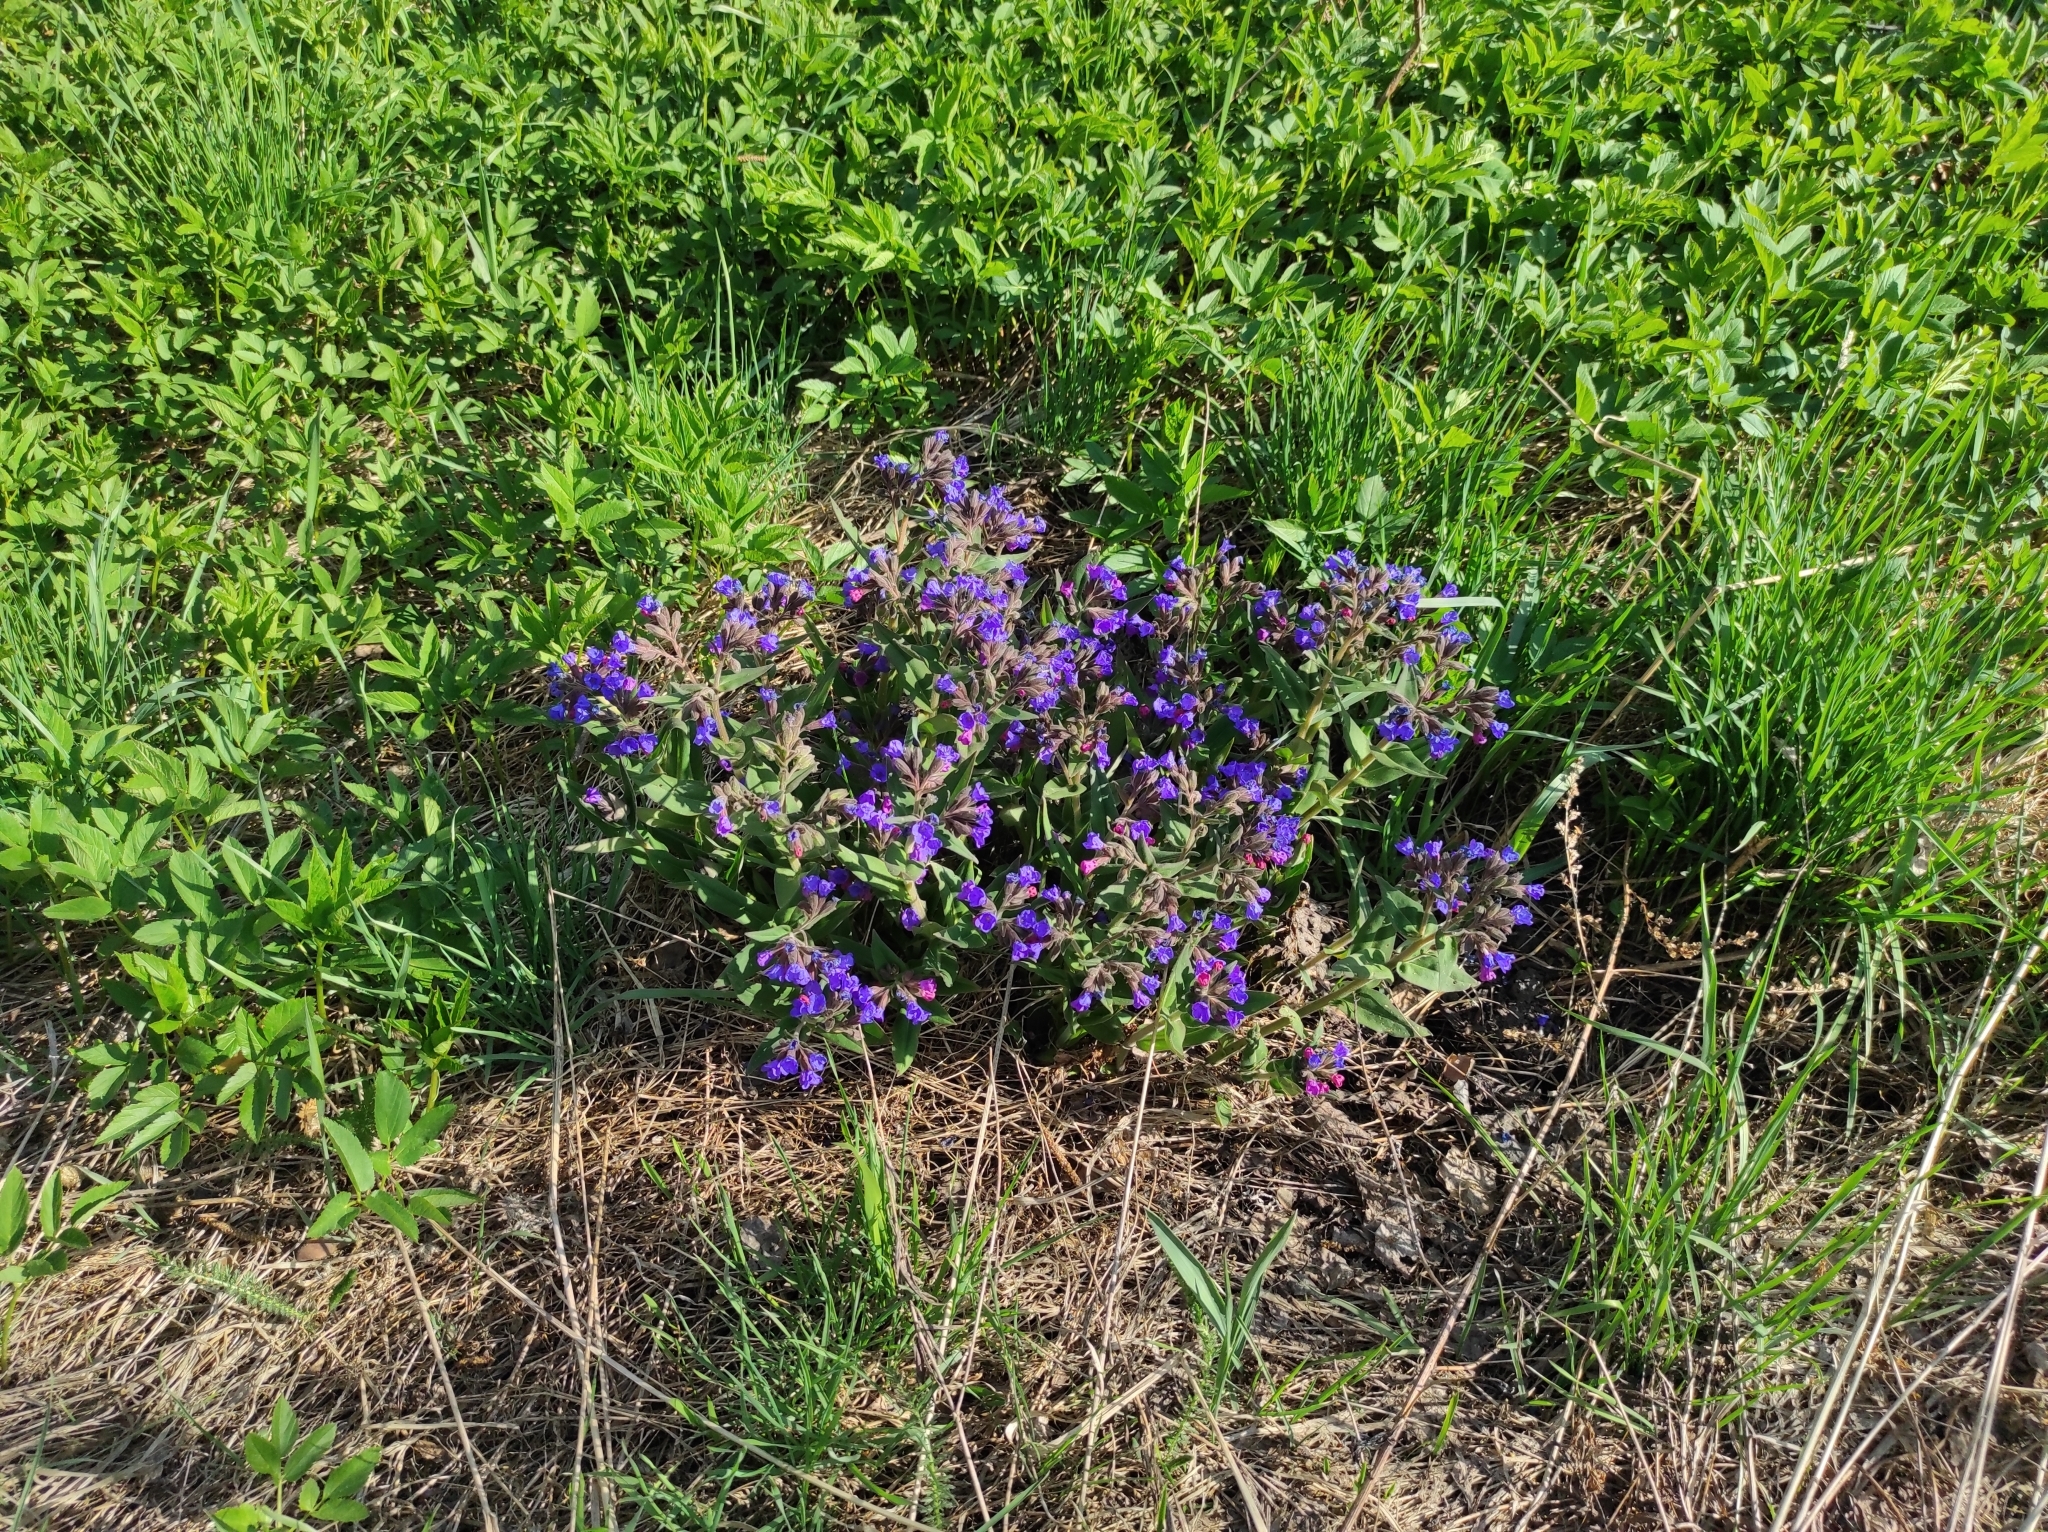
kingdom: Plantae
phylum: Tracheophyta
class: Magnoliopsida
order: Boraginales
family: Boraginaceae
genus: Pulmonaria
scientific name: Pulmonaria mollis
